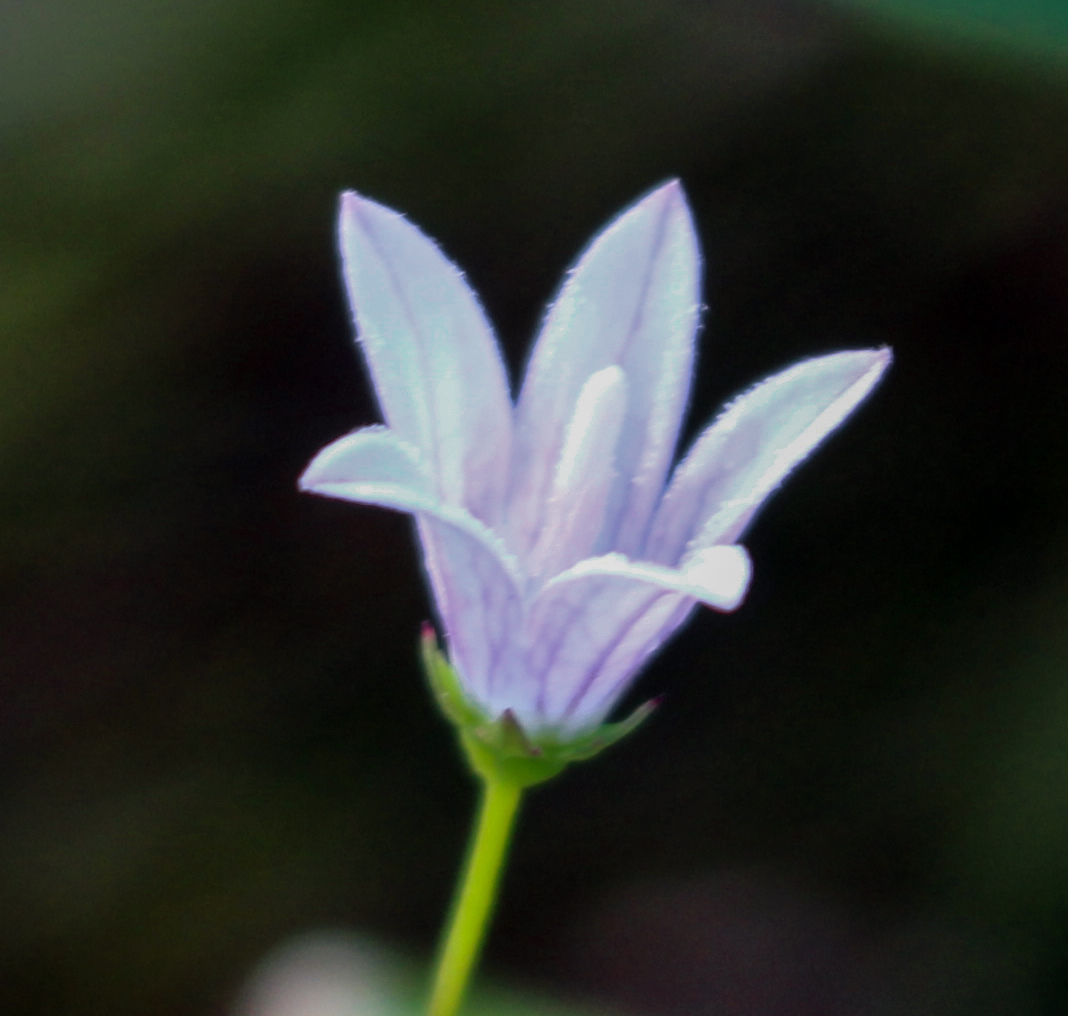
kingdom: Plantae
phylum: Tracheophyta
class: Magnoliopsida
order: Asterales
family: Campanulaceae
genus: Palustricodon
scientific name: Palustricodon aparinoides
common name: Bedstraw bellflower
